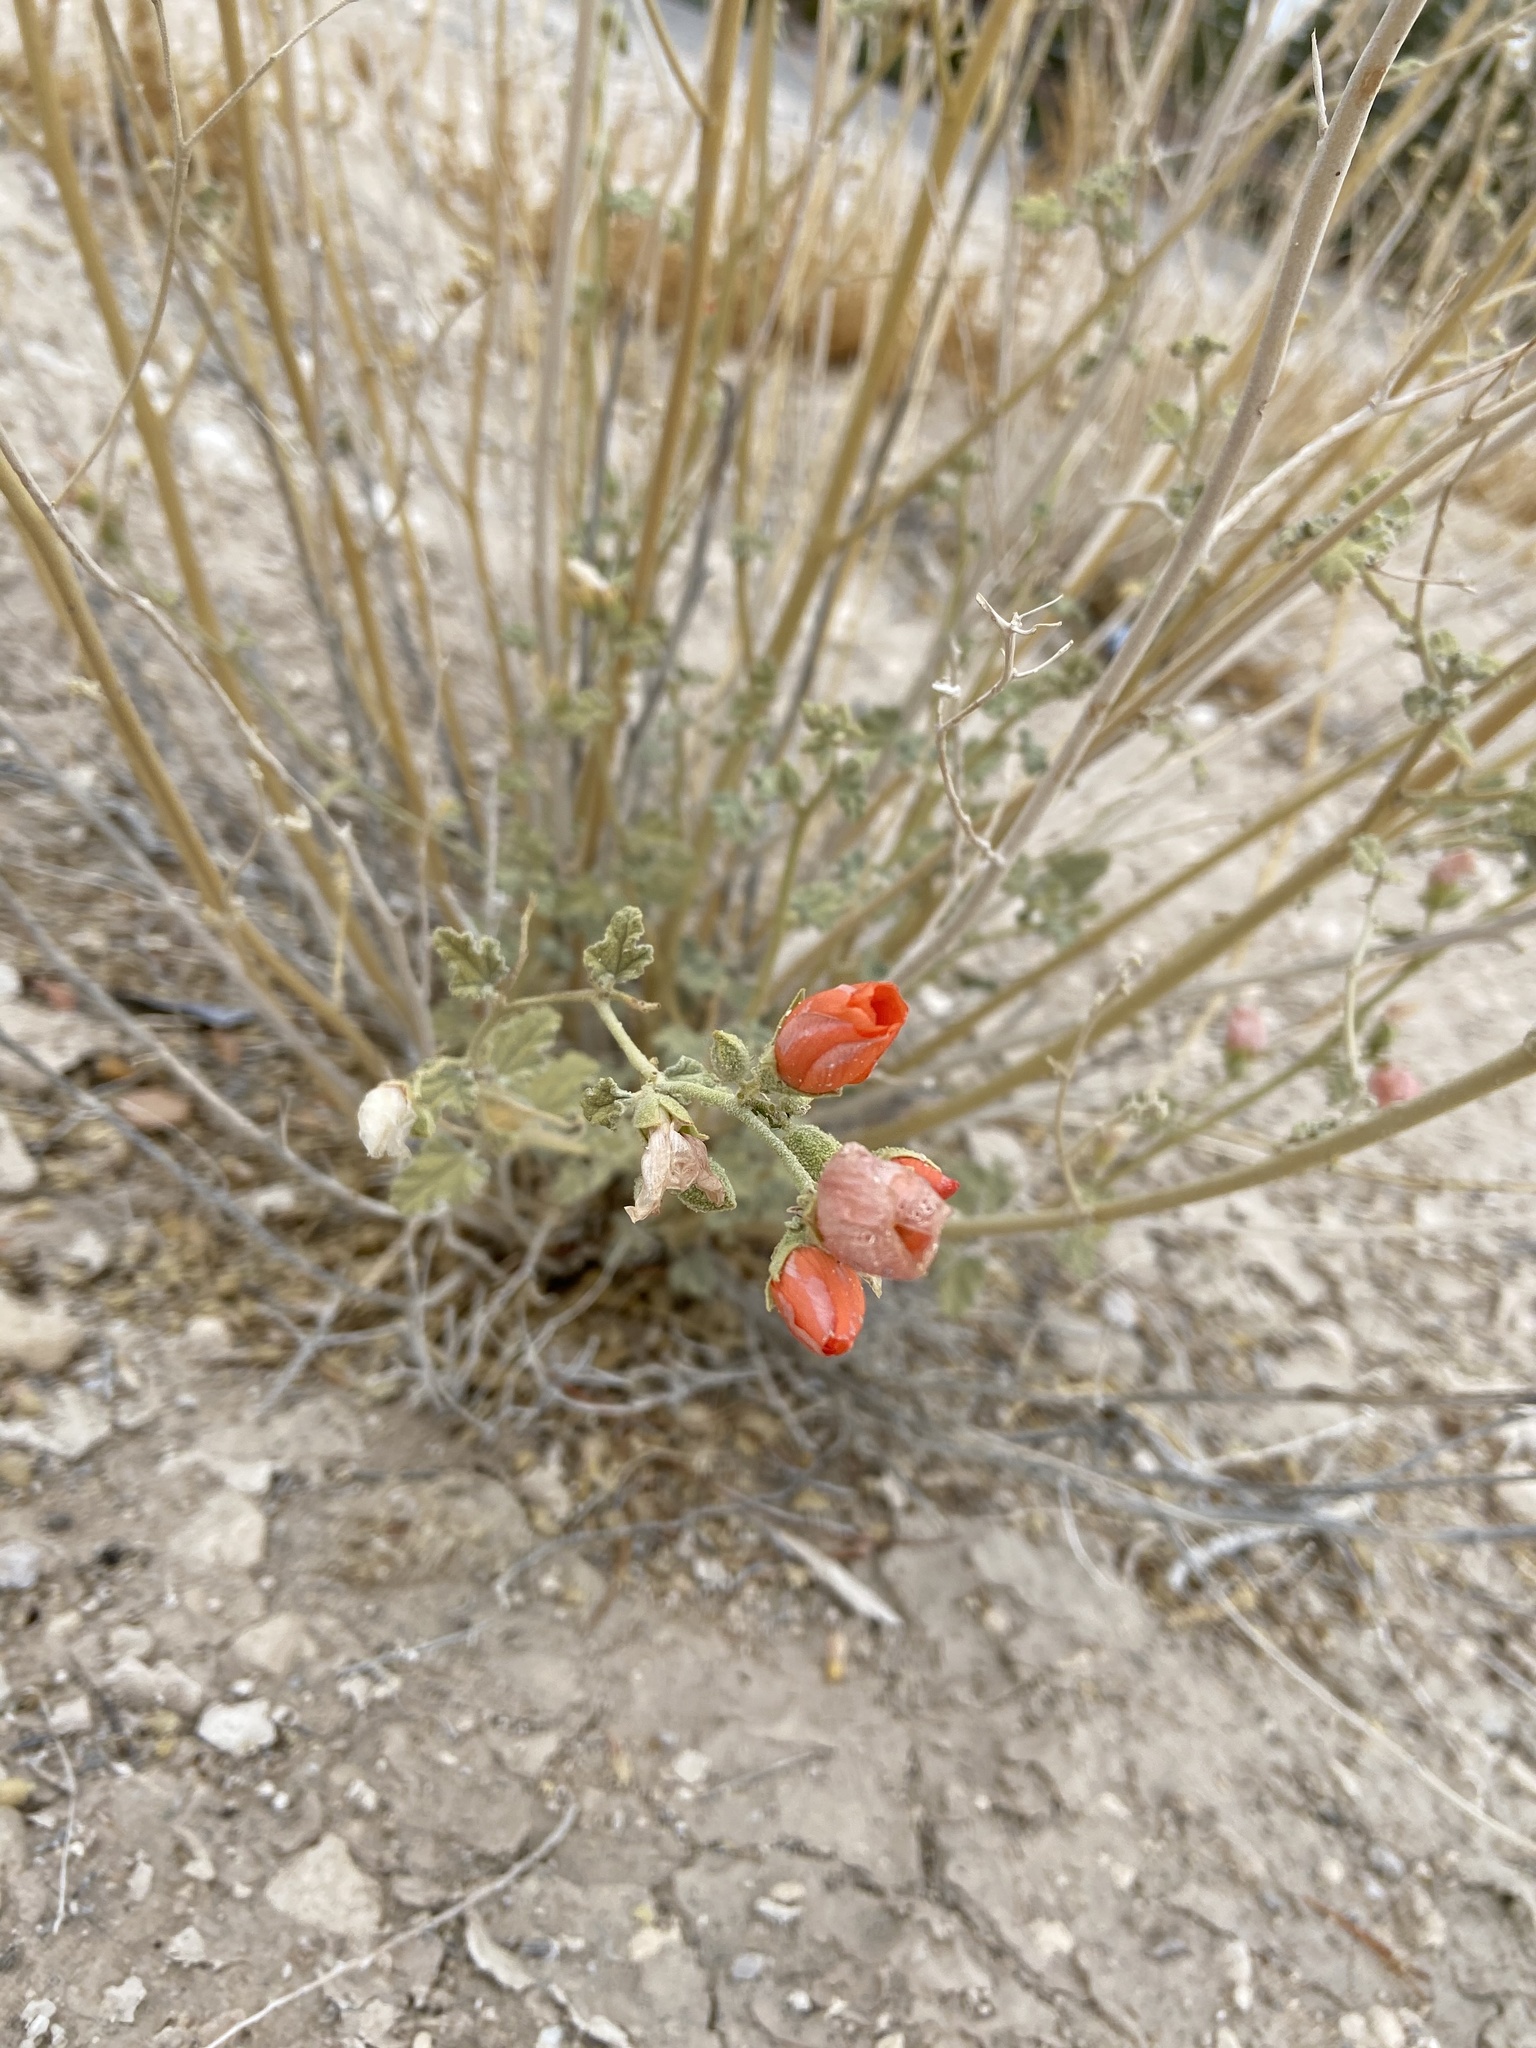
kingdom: Plantae
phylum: Tracheophyta
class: Magnoliopsida
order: Malvales
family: Malvaceae
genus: Sphaeralcea
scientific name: Sphaeralcea ambigua
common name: Apricot globe-mallow
